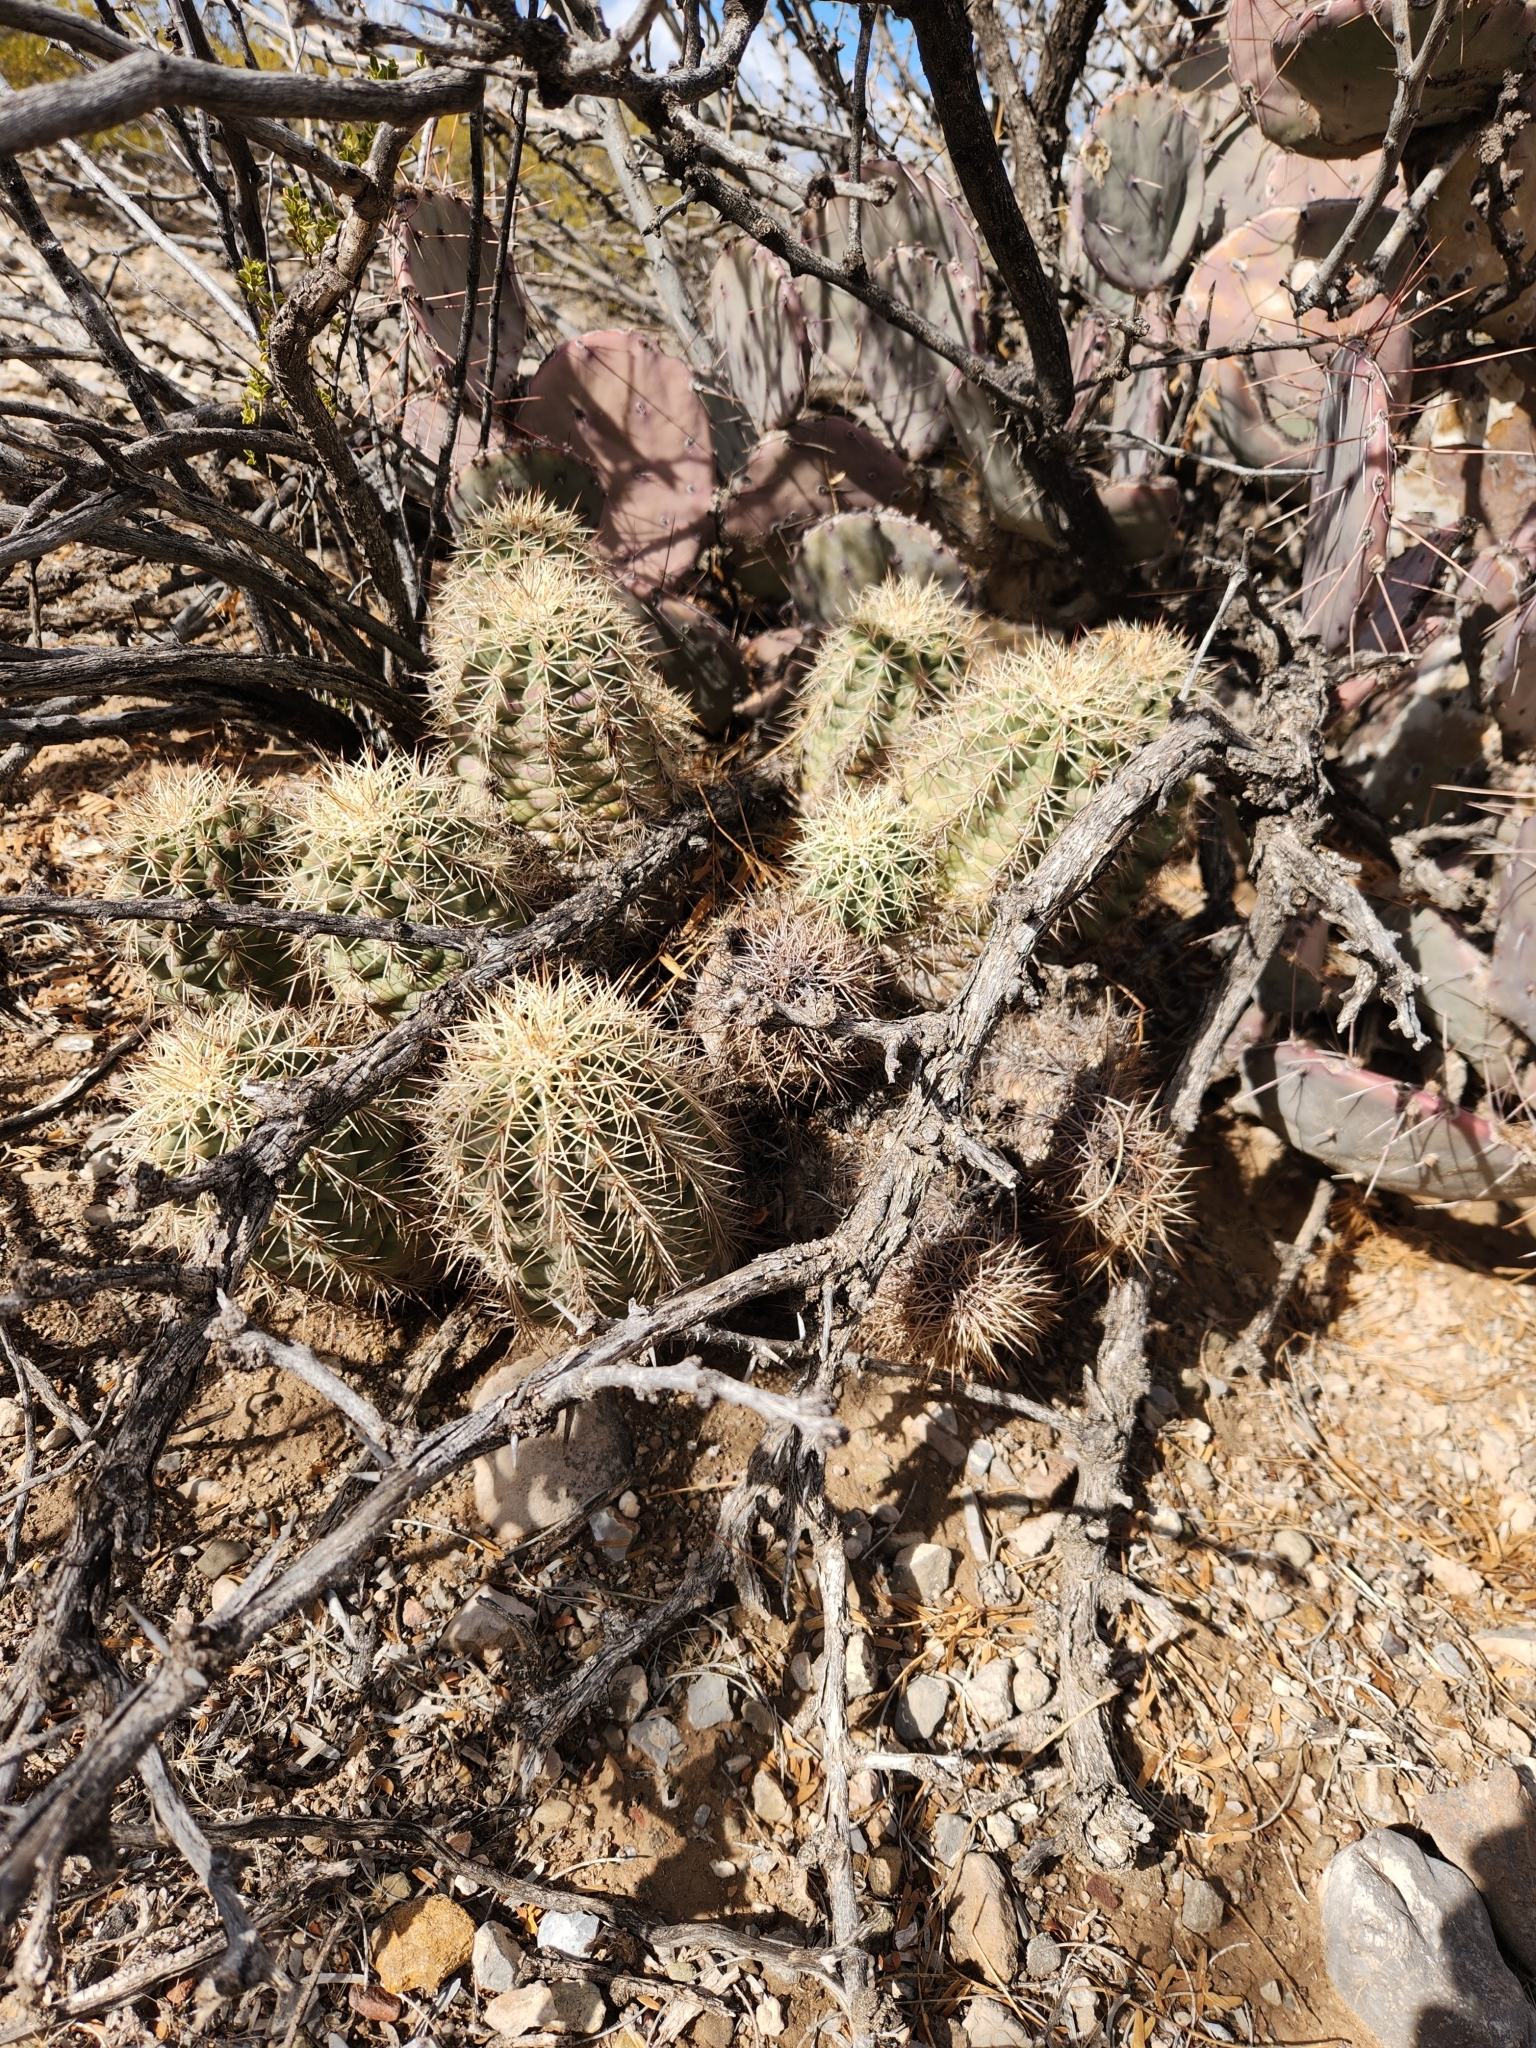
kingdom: Plantae
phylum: Tracheophyta
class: Magnoliopsida
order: Caryophyllales
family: Cactaceae
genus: Echinocereus
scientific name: Echinocereus coccineus
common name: Scarlet hedgehog cactus
